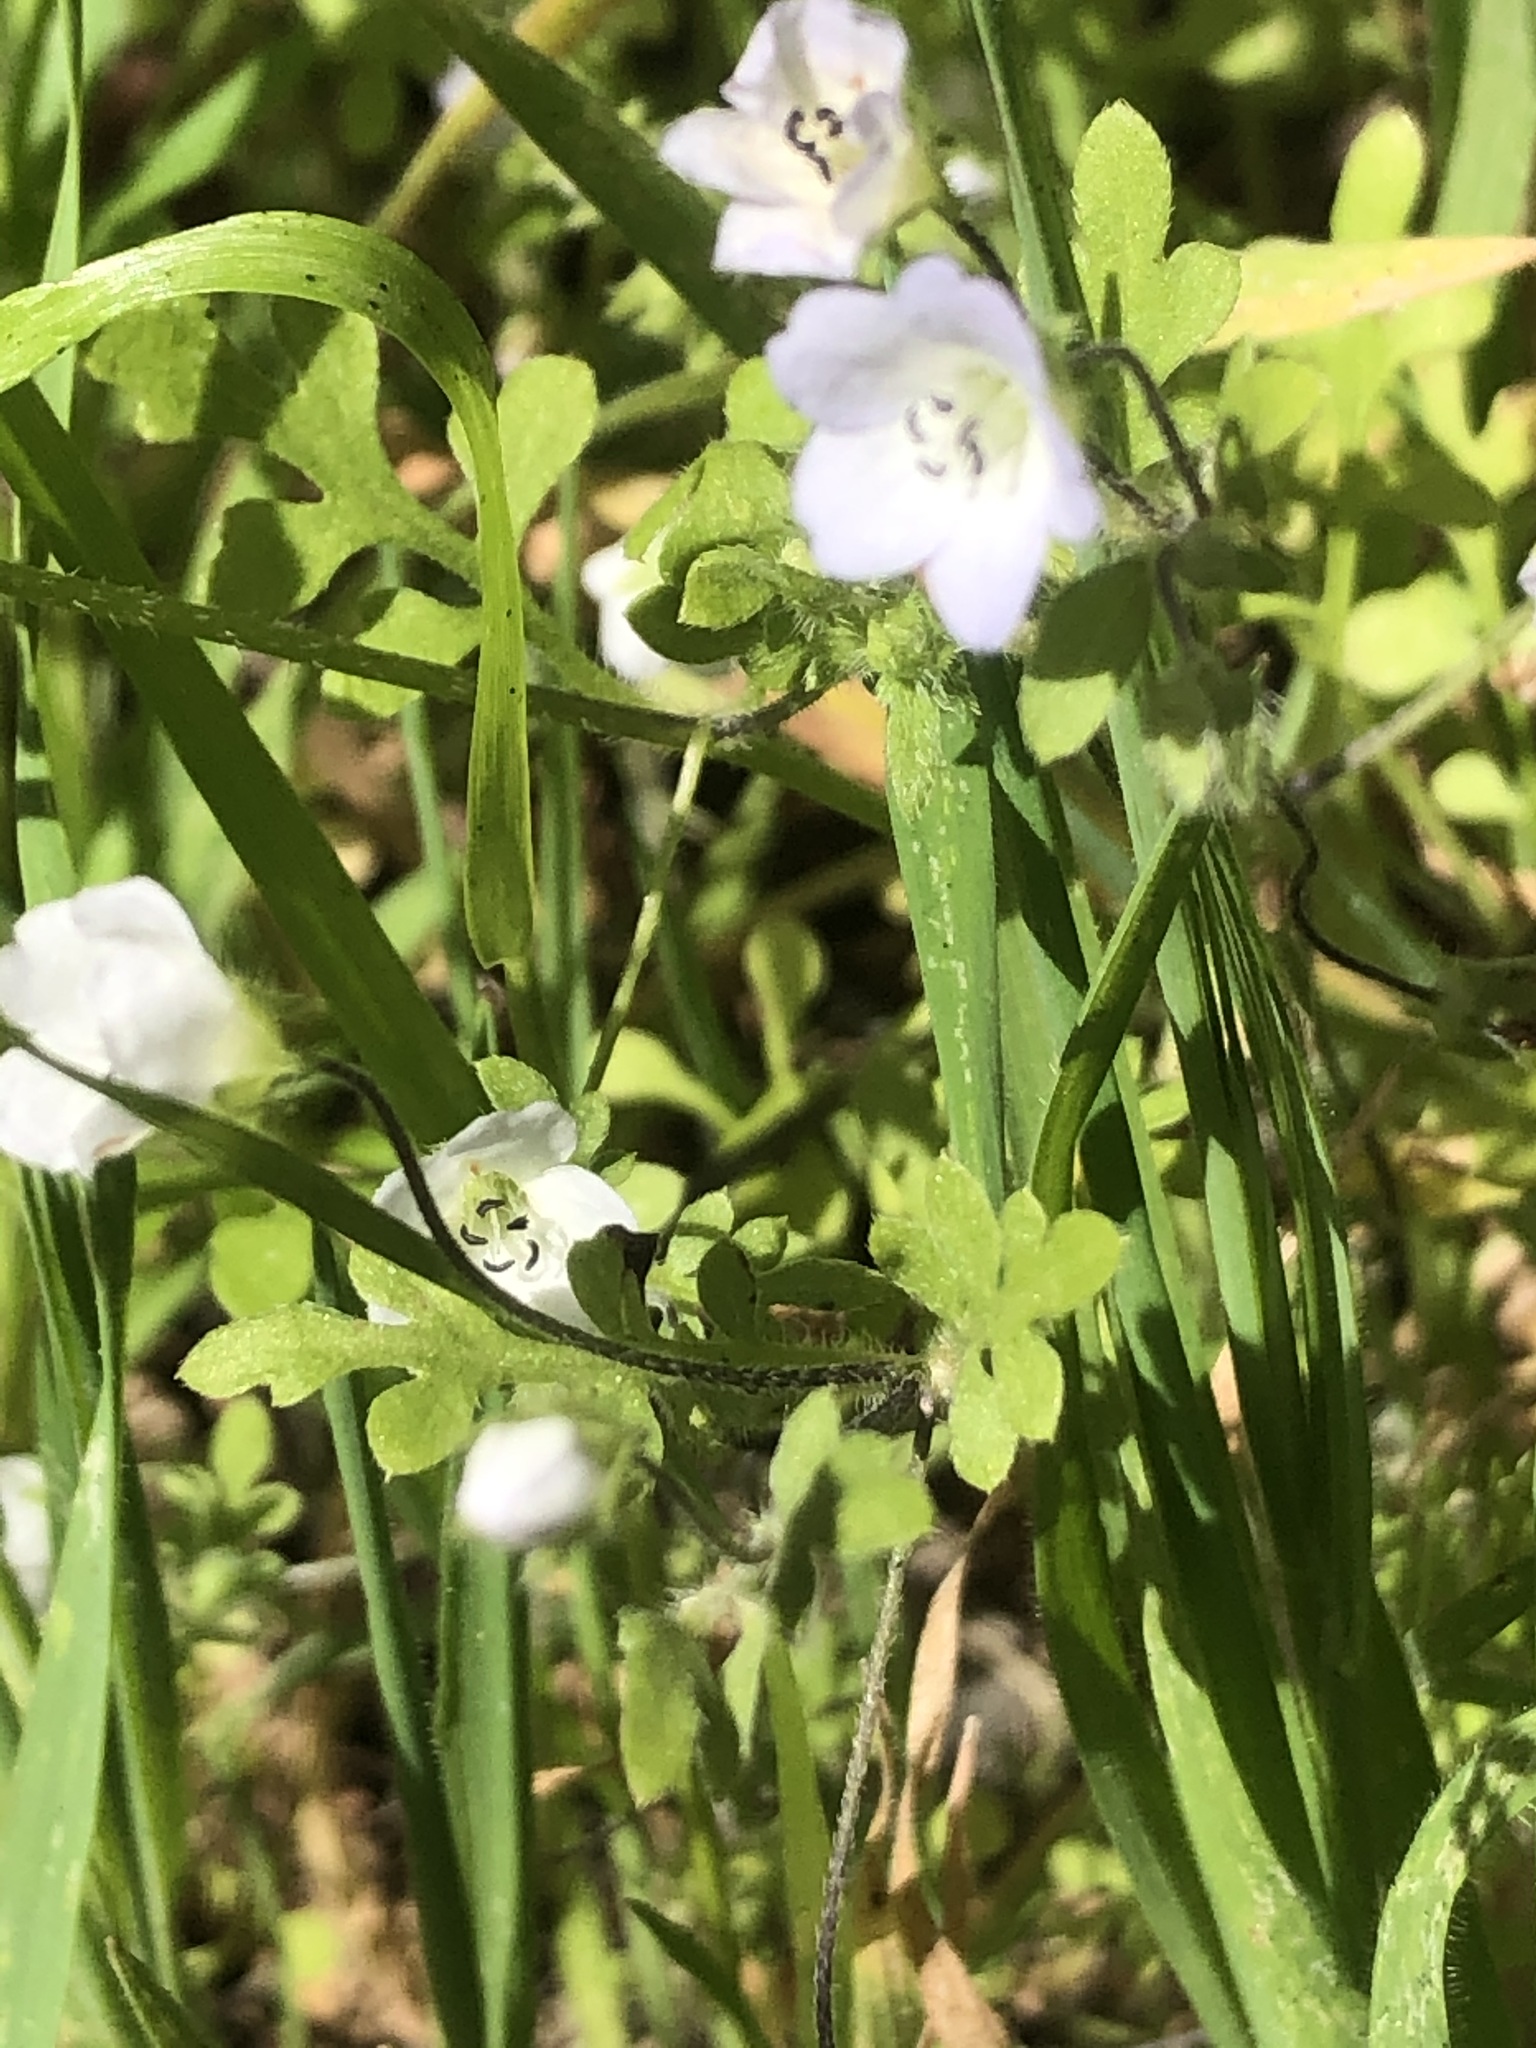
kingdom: Plantae
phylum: Tracheophyta
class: Magnoliopsida
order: Boraginales
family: Hydrophyllaceae
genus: Nemophila
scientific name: Nemophila heterophylla
